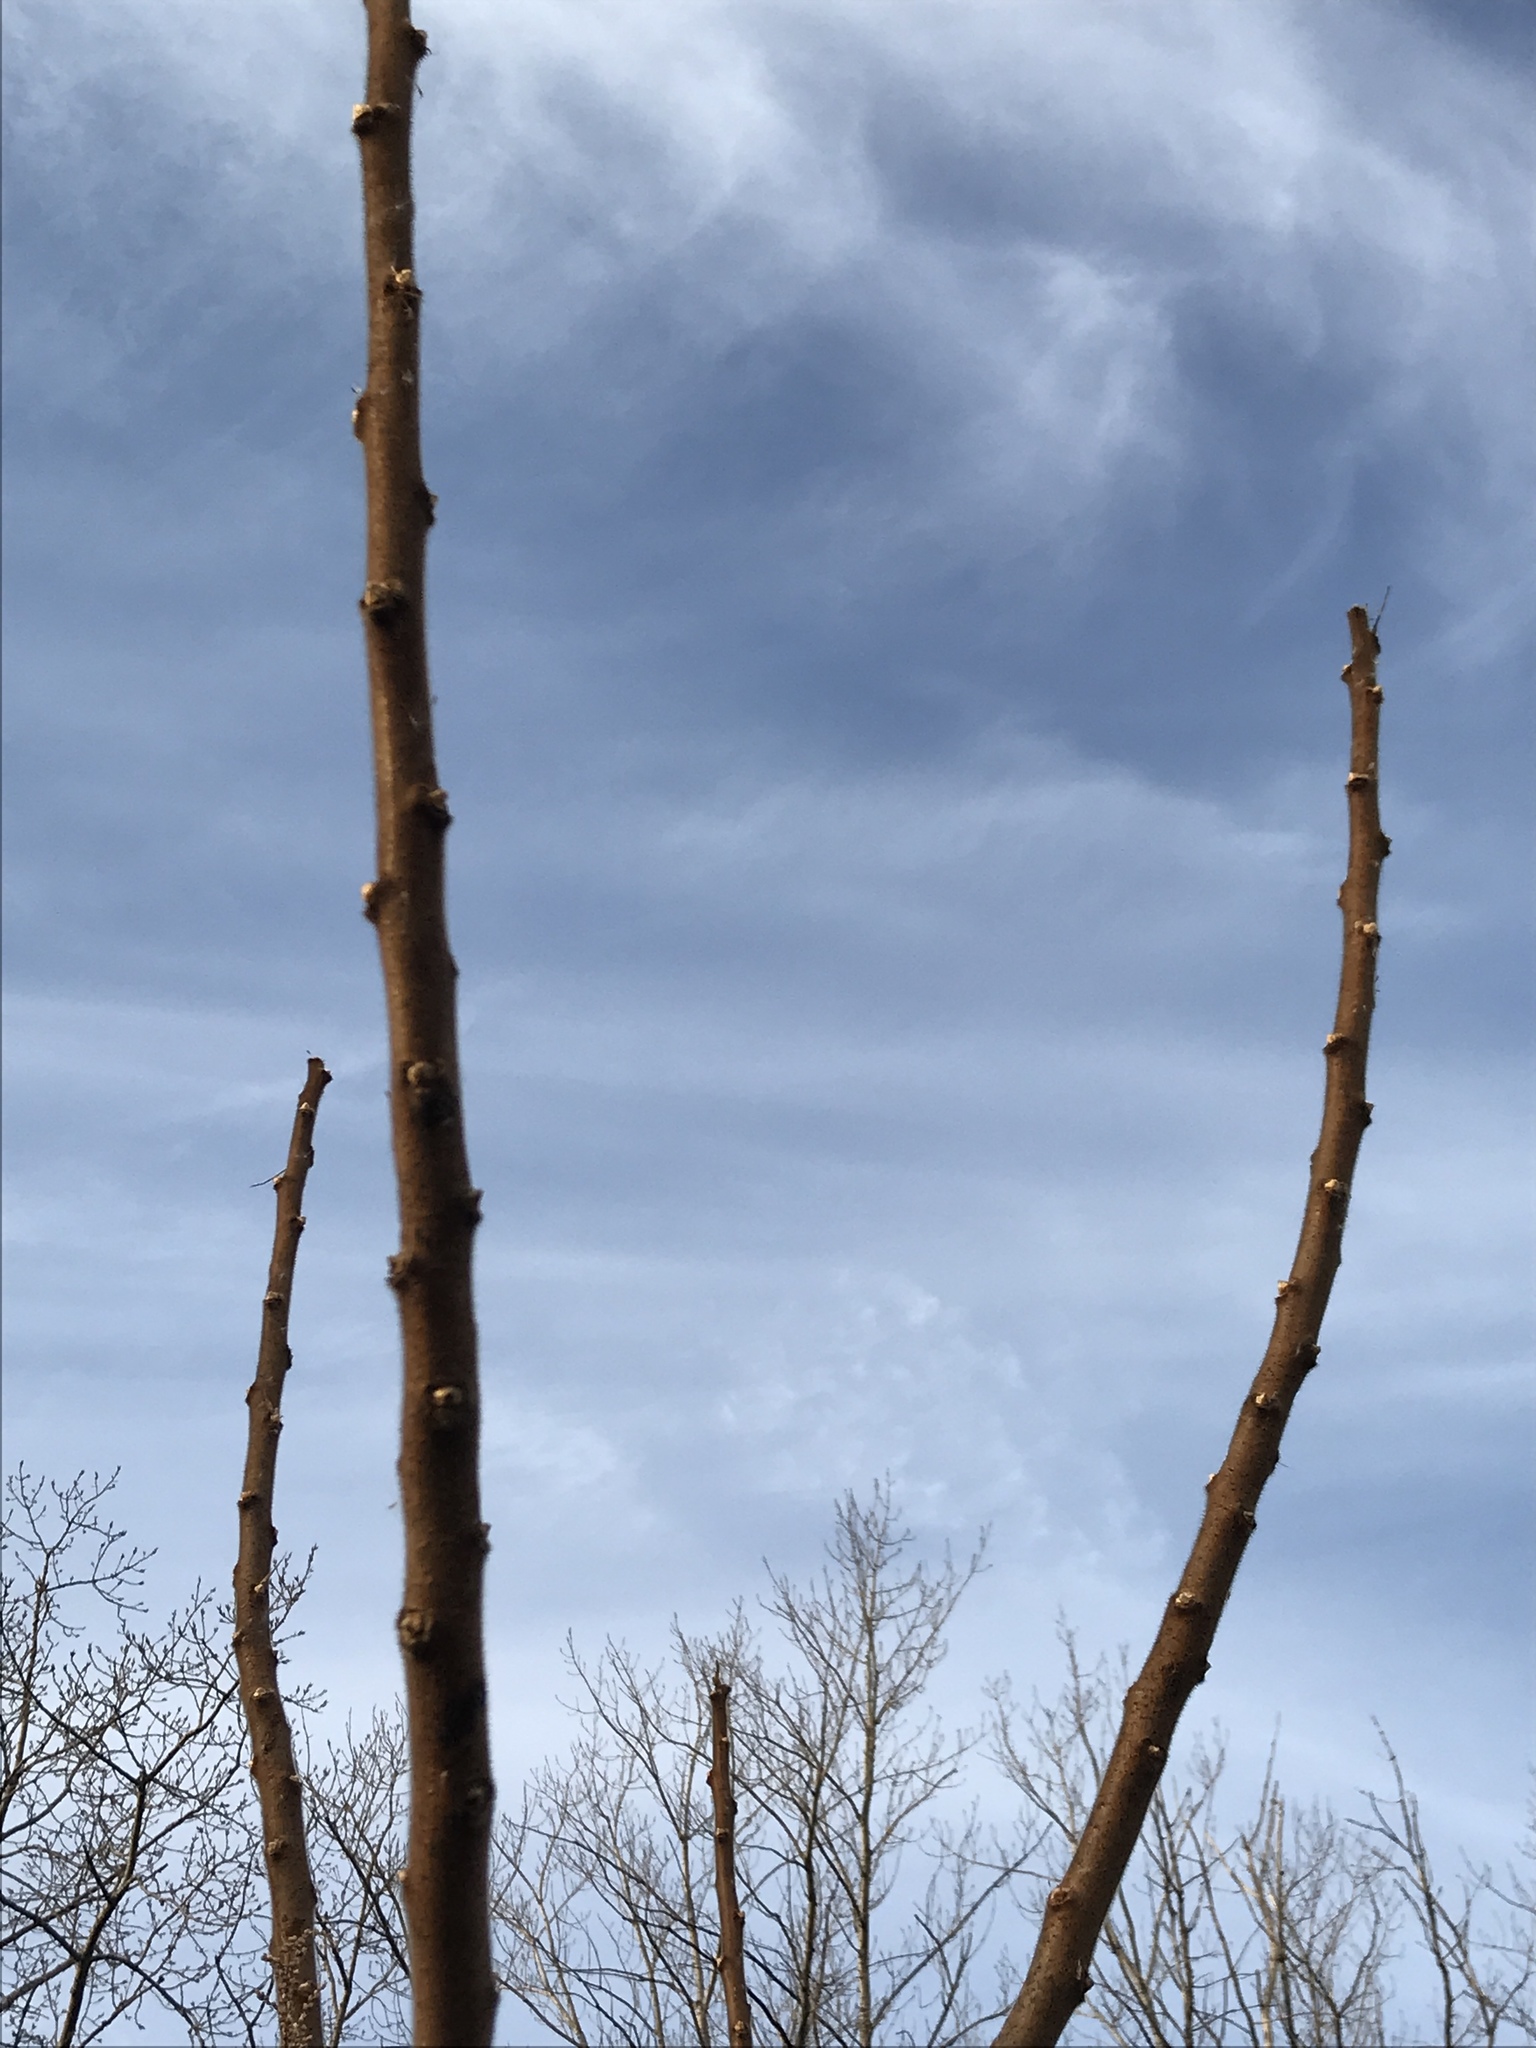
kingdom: Plantae
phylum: Tracheophyta
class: Magnoliopsida
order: Sapindales
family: Anacardiaceae
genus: Rhus
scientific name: Rhus typhina
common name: Staghorn sumac
